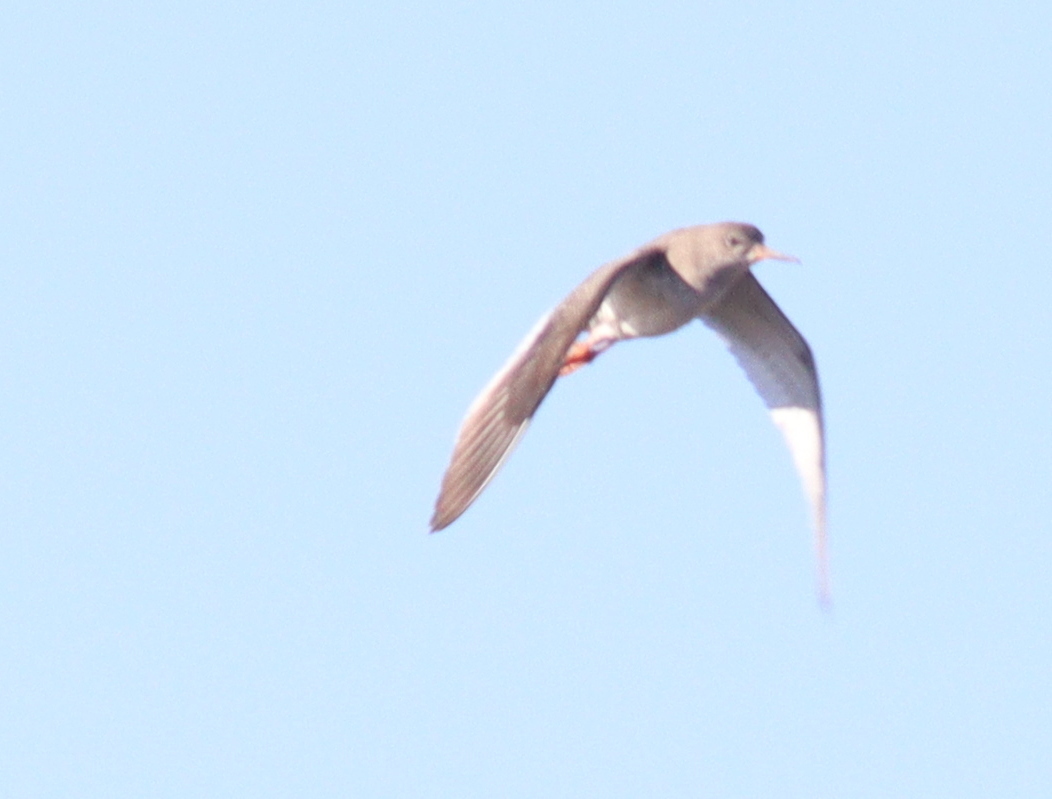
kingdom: Animalia
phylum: Chordata
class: Aves
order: Charadriiformes
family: Scolopacidae
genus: Tringa
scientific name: Tringa totanus
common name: Common redshank
